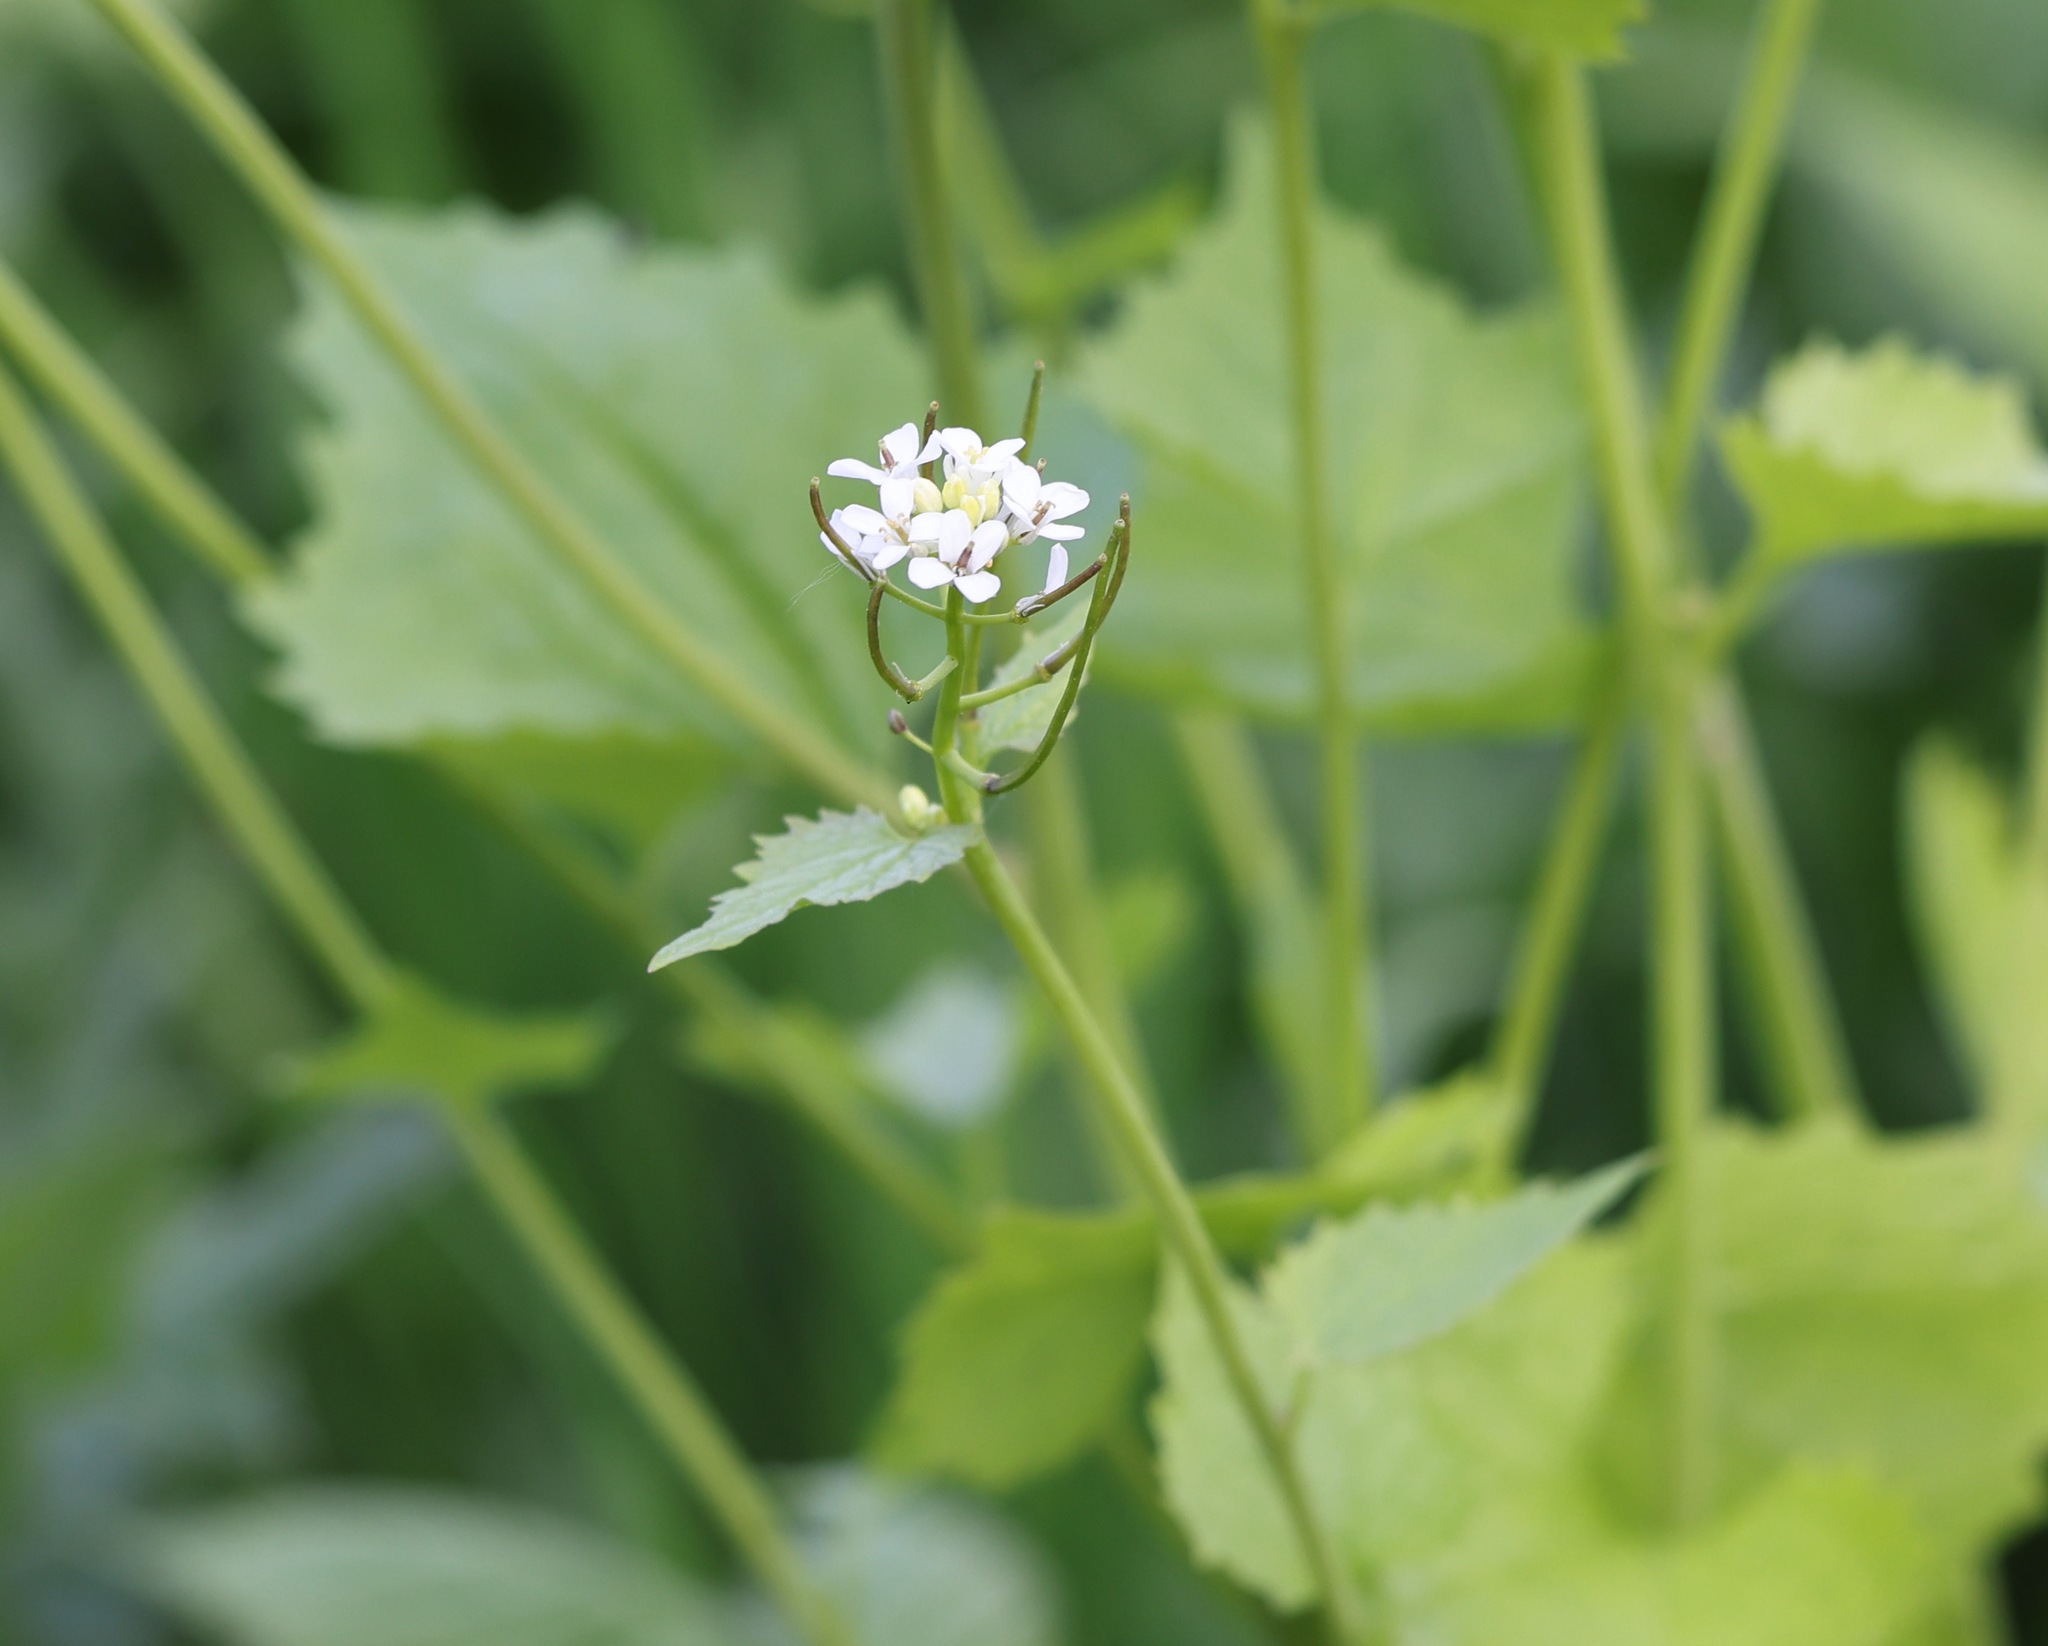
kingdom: Plantae
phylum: Tracheophyta
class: Magnoliopsida
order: Brassicales
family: Brassicaceae
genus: Alliaria
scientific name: Alliaria petiolata
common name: Garlic mustard
